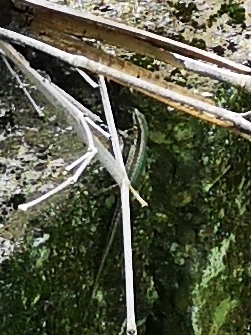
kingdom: Animalia
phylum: Chordata
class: Squamata
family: Lacertidae
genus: Podarcis
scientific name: Podarcis muralis
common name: Common wall lizard
